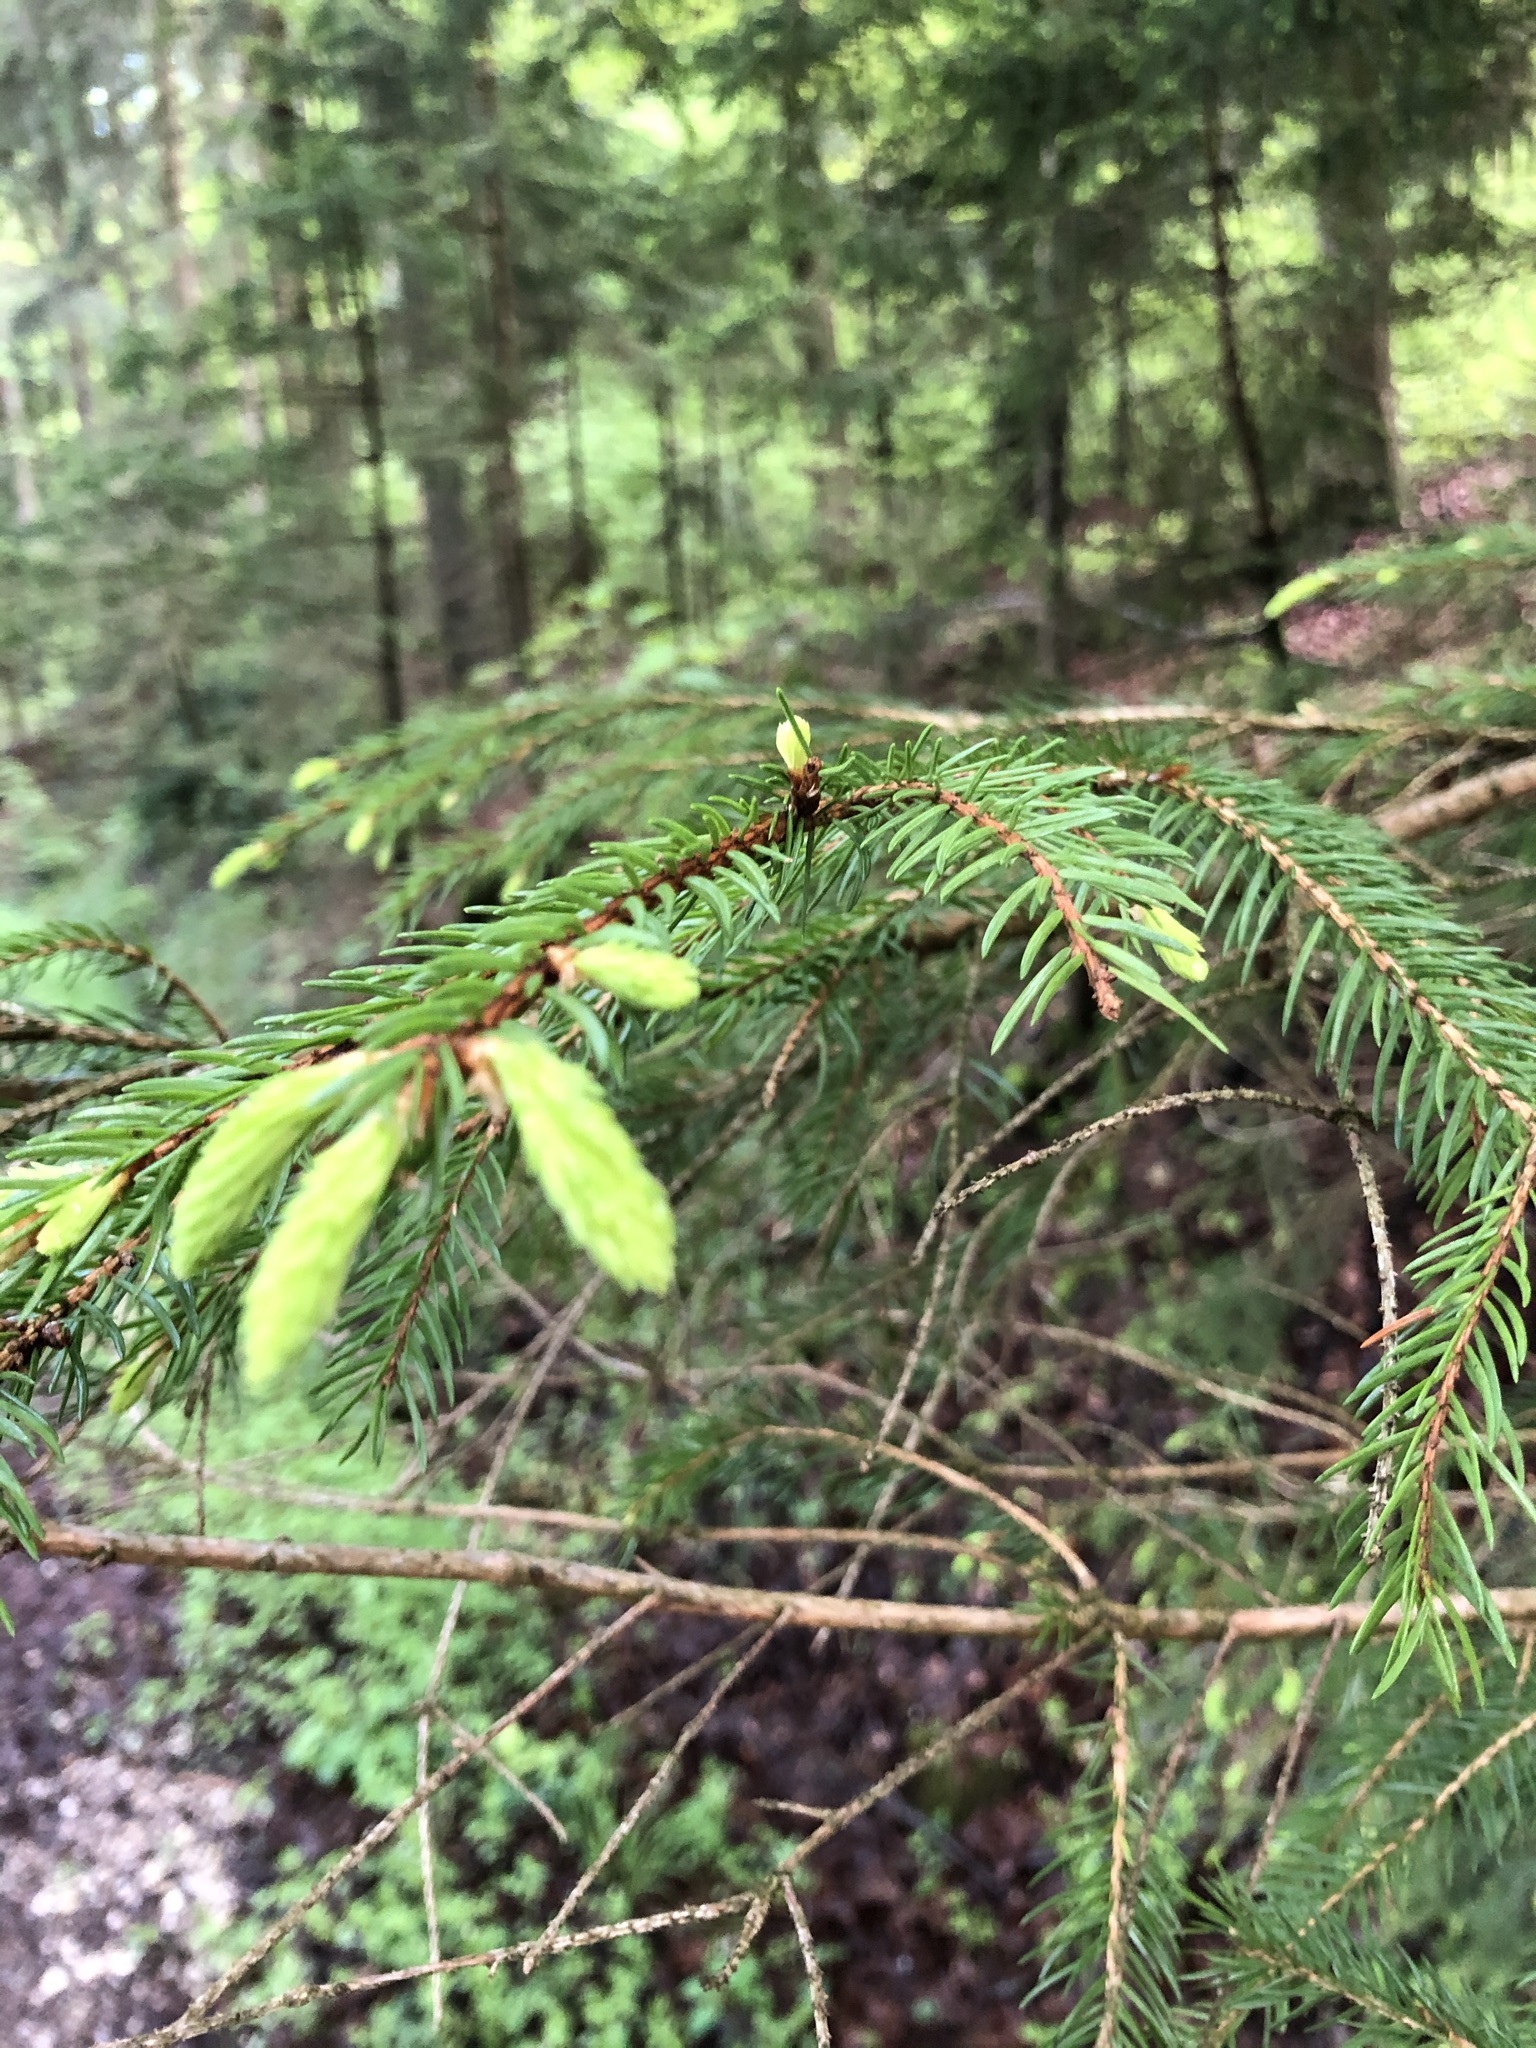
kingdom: Plantae
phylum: Tracheophyta
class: Pinopsida
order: Pinales
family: Pinaceae
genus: Picea
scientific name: Picea abies
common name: Norway spruce
